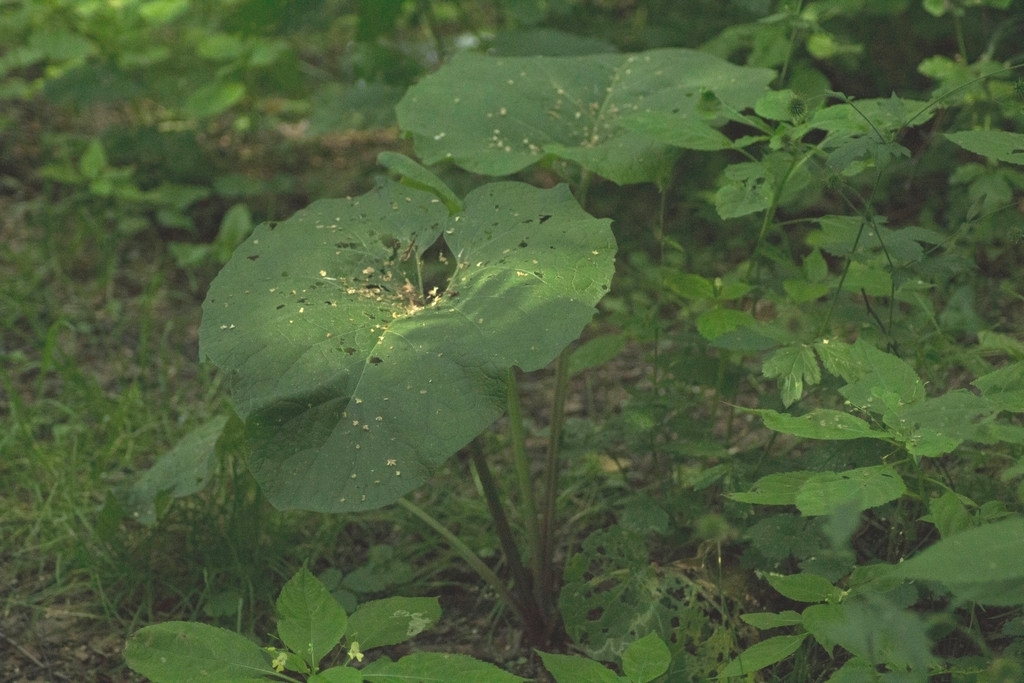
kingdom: Plantae
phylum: Tracheophyta
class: Magnoliopsida
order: Asterales
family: Asteraceae
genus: Arctium
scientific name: Arctium
